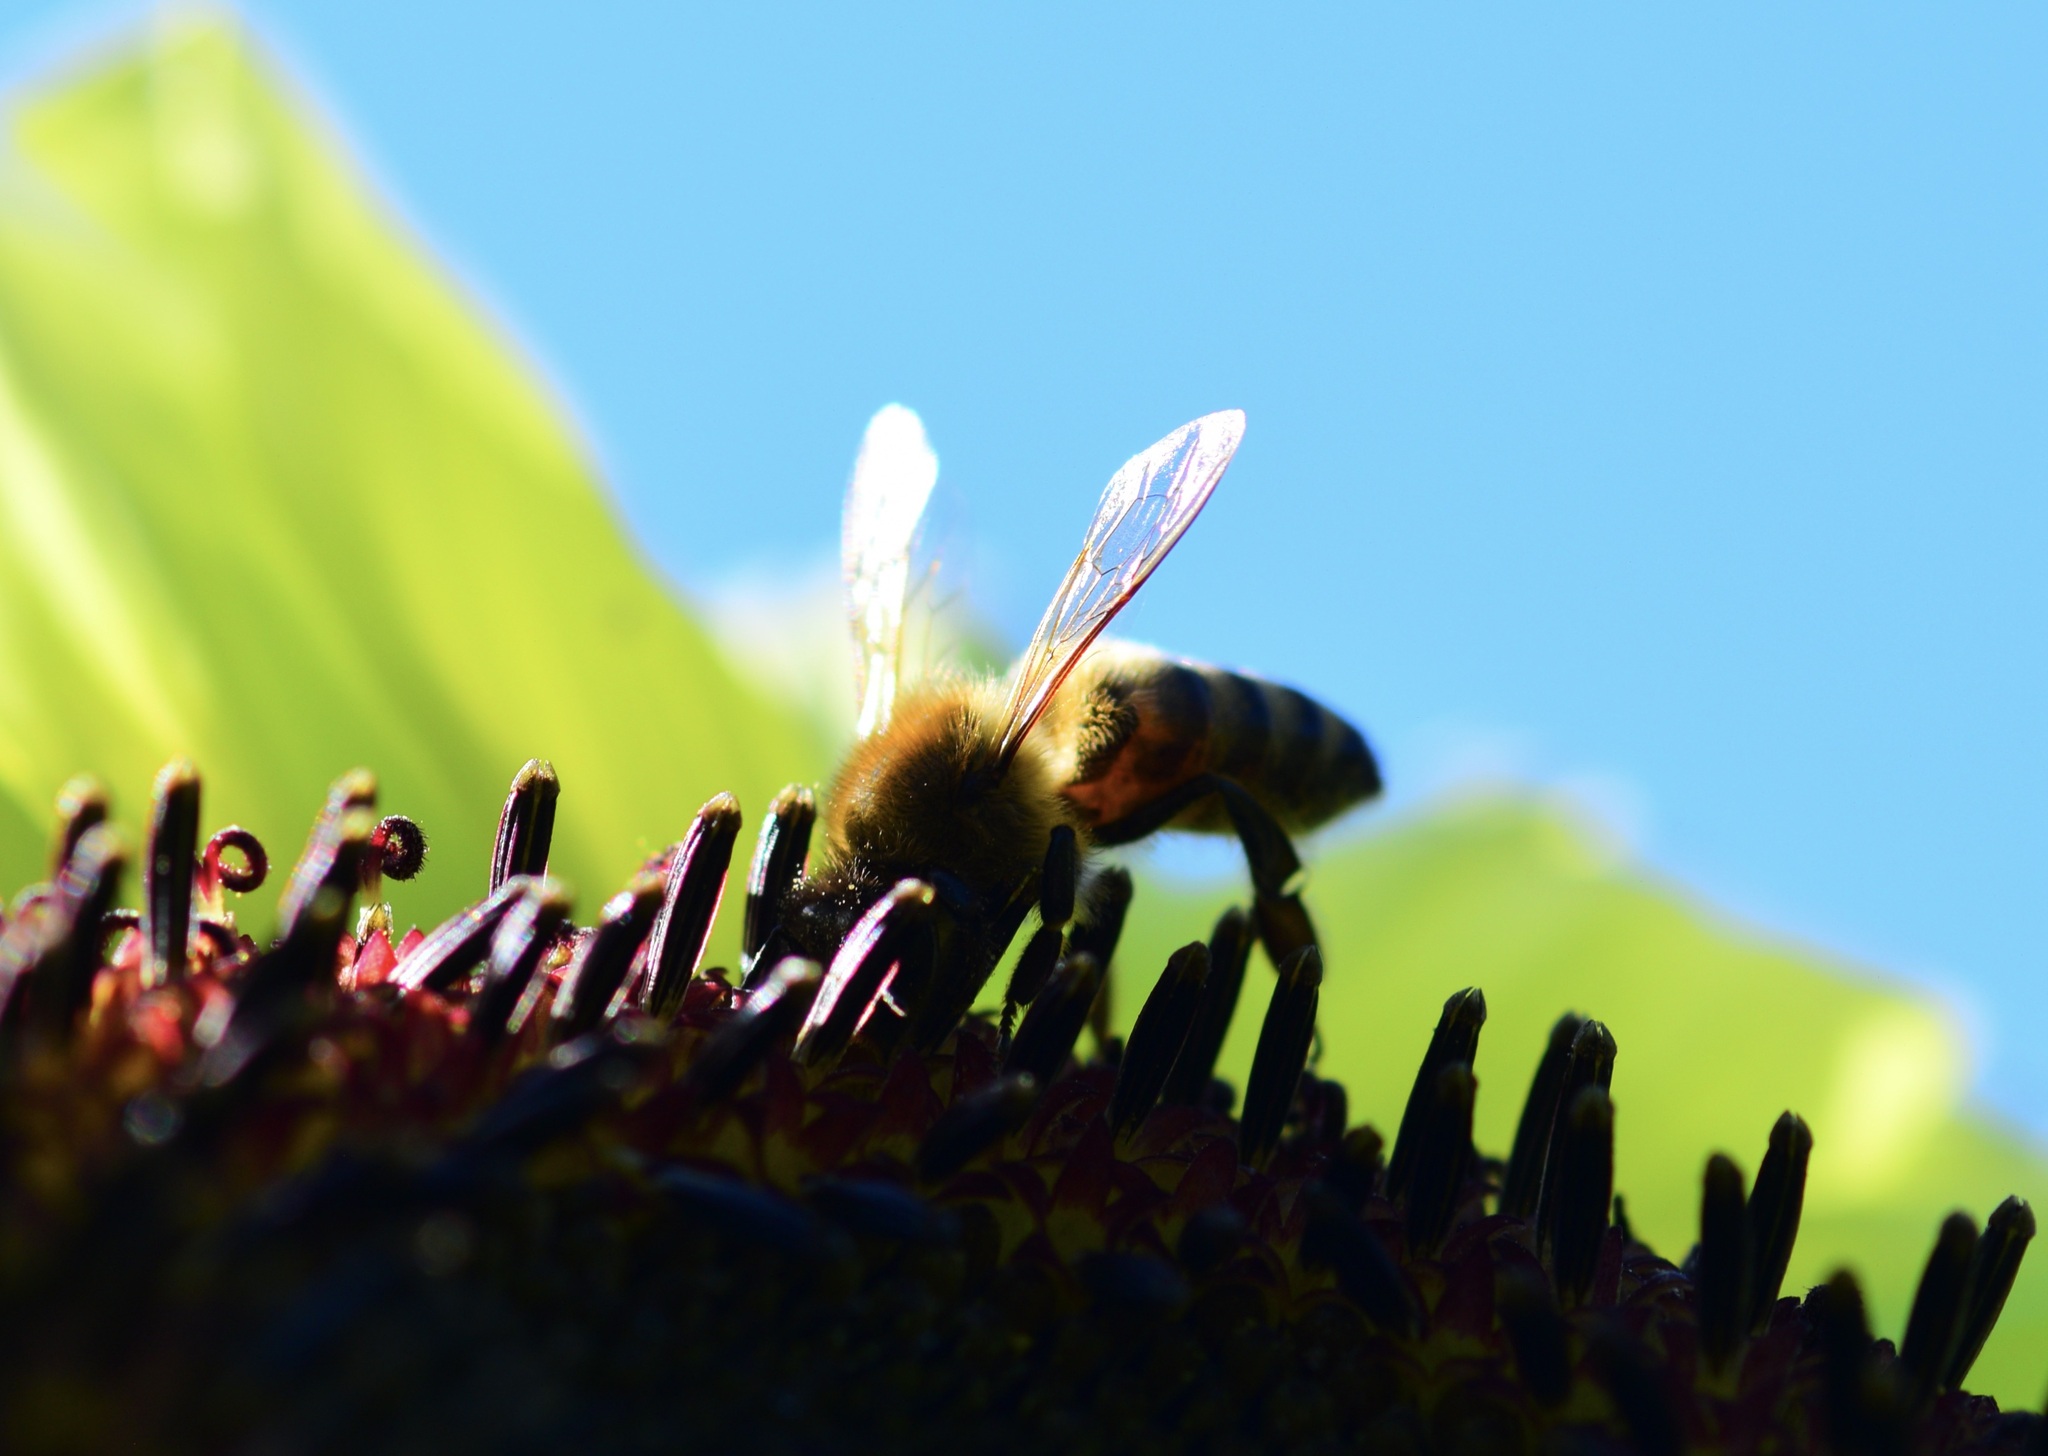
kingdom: Animalia
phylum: Arthropoda
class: Insecta
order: Hymenoptera
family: Apidae
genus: Apis
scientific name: Apis mellifera
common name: Honey bee
